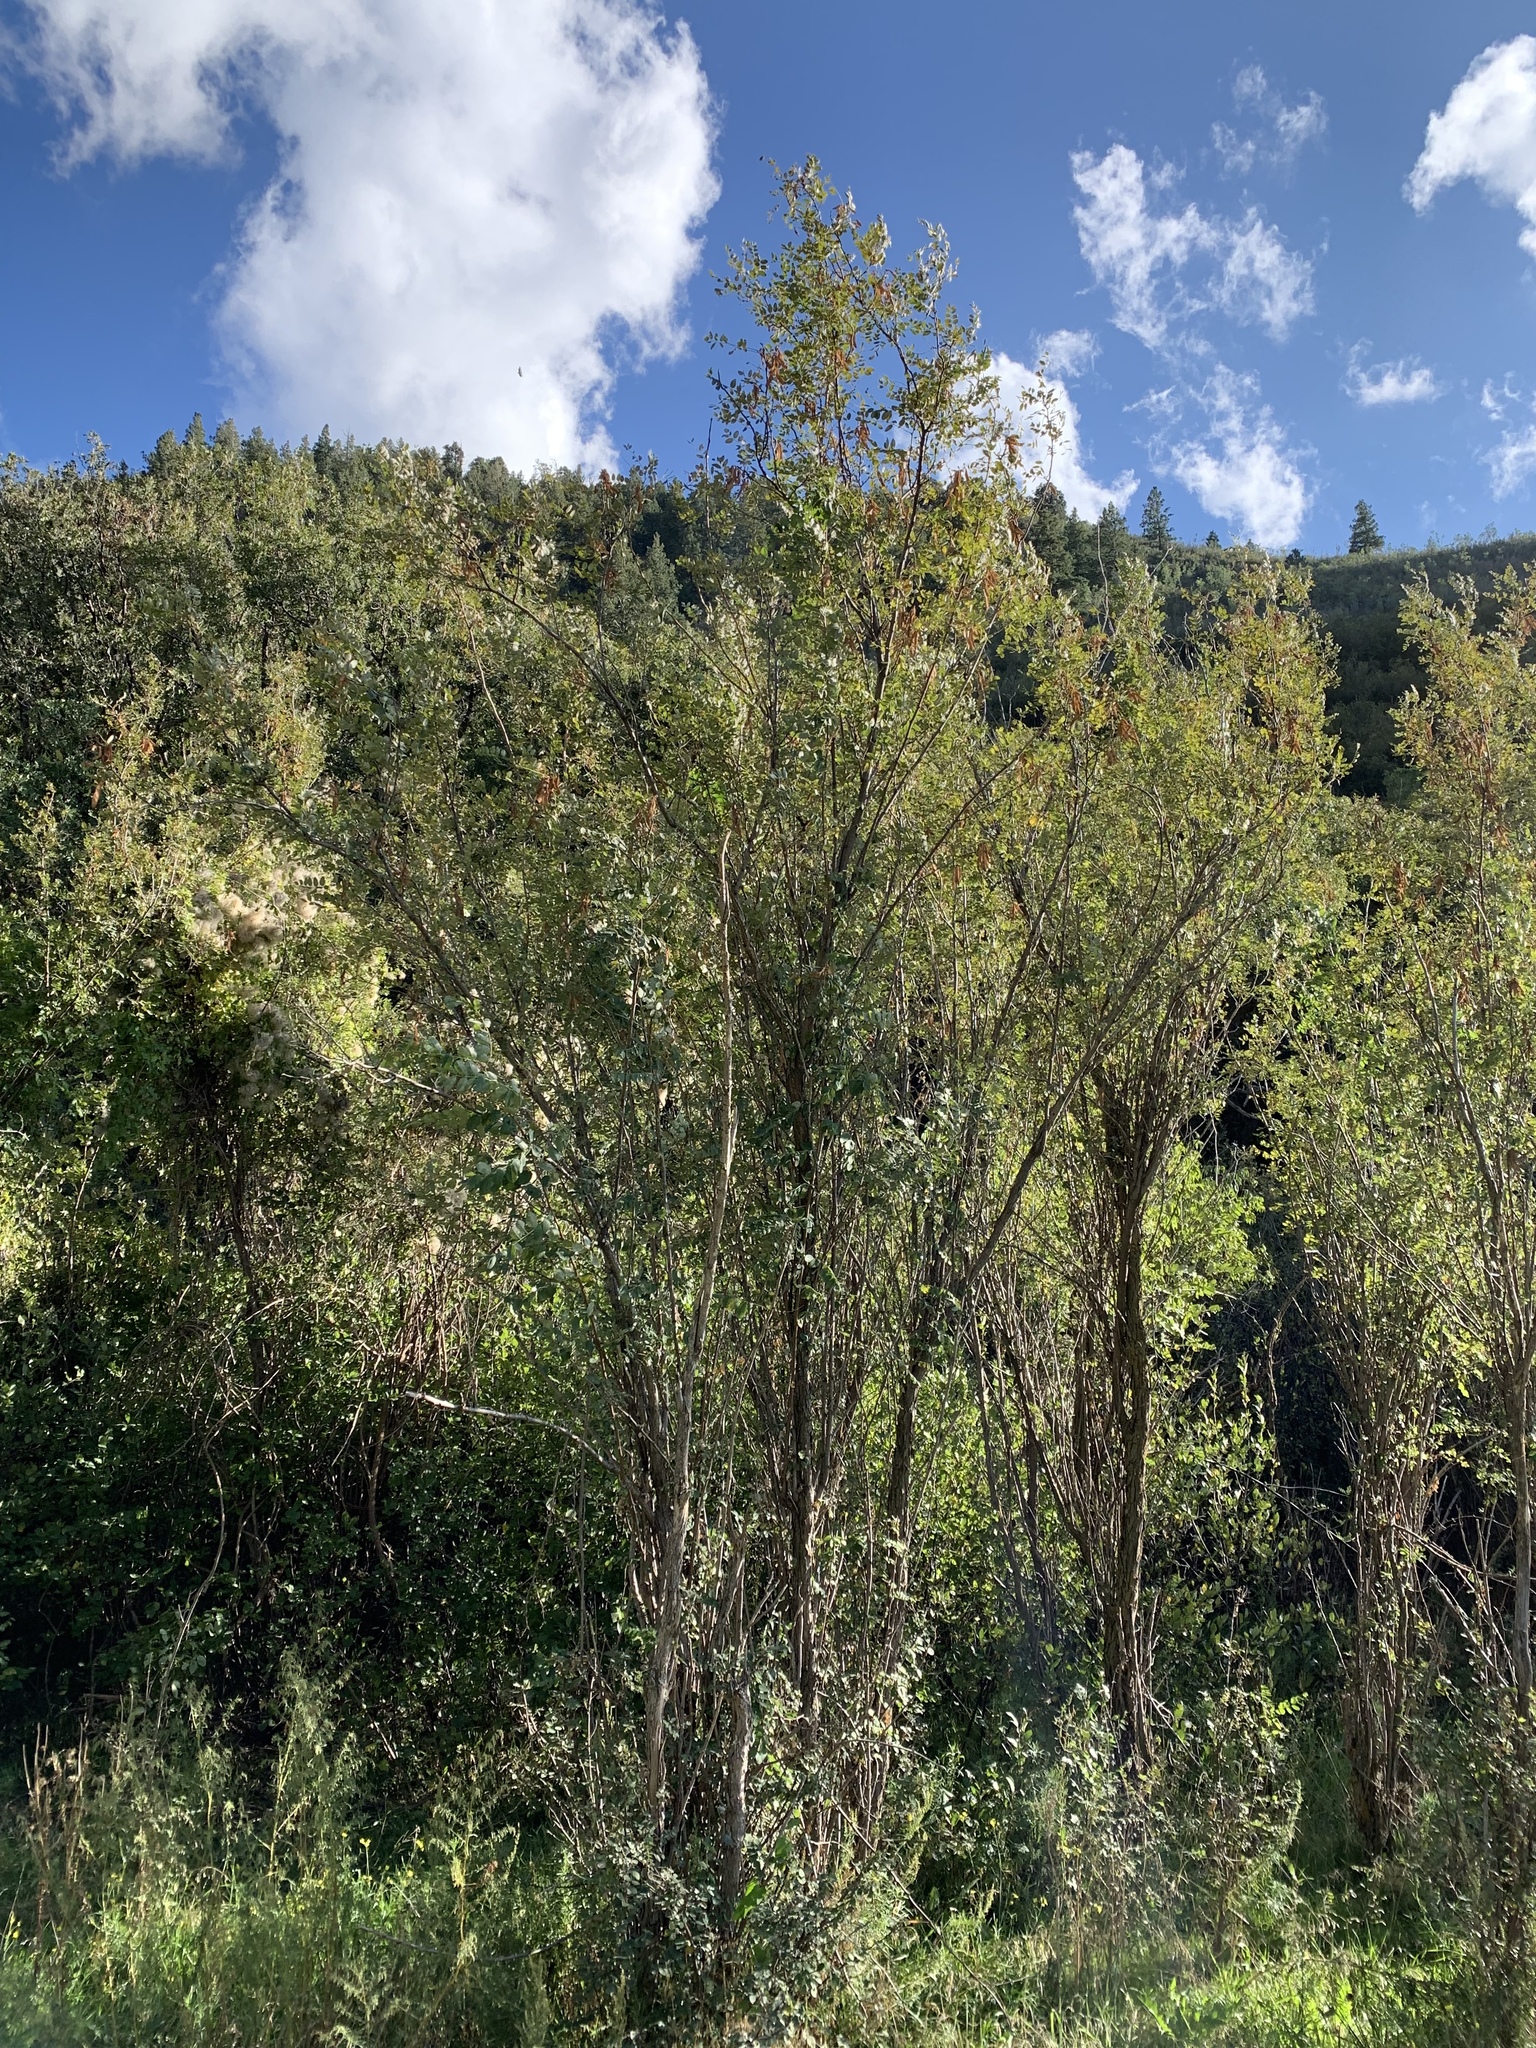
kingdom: Plantae
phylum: Tracheophyta
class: Magnoliopsida
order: Fabales
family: Fabaceae
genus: Robinia
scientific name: Robinia neomexicana
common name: New mexico locust
